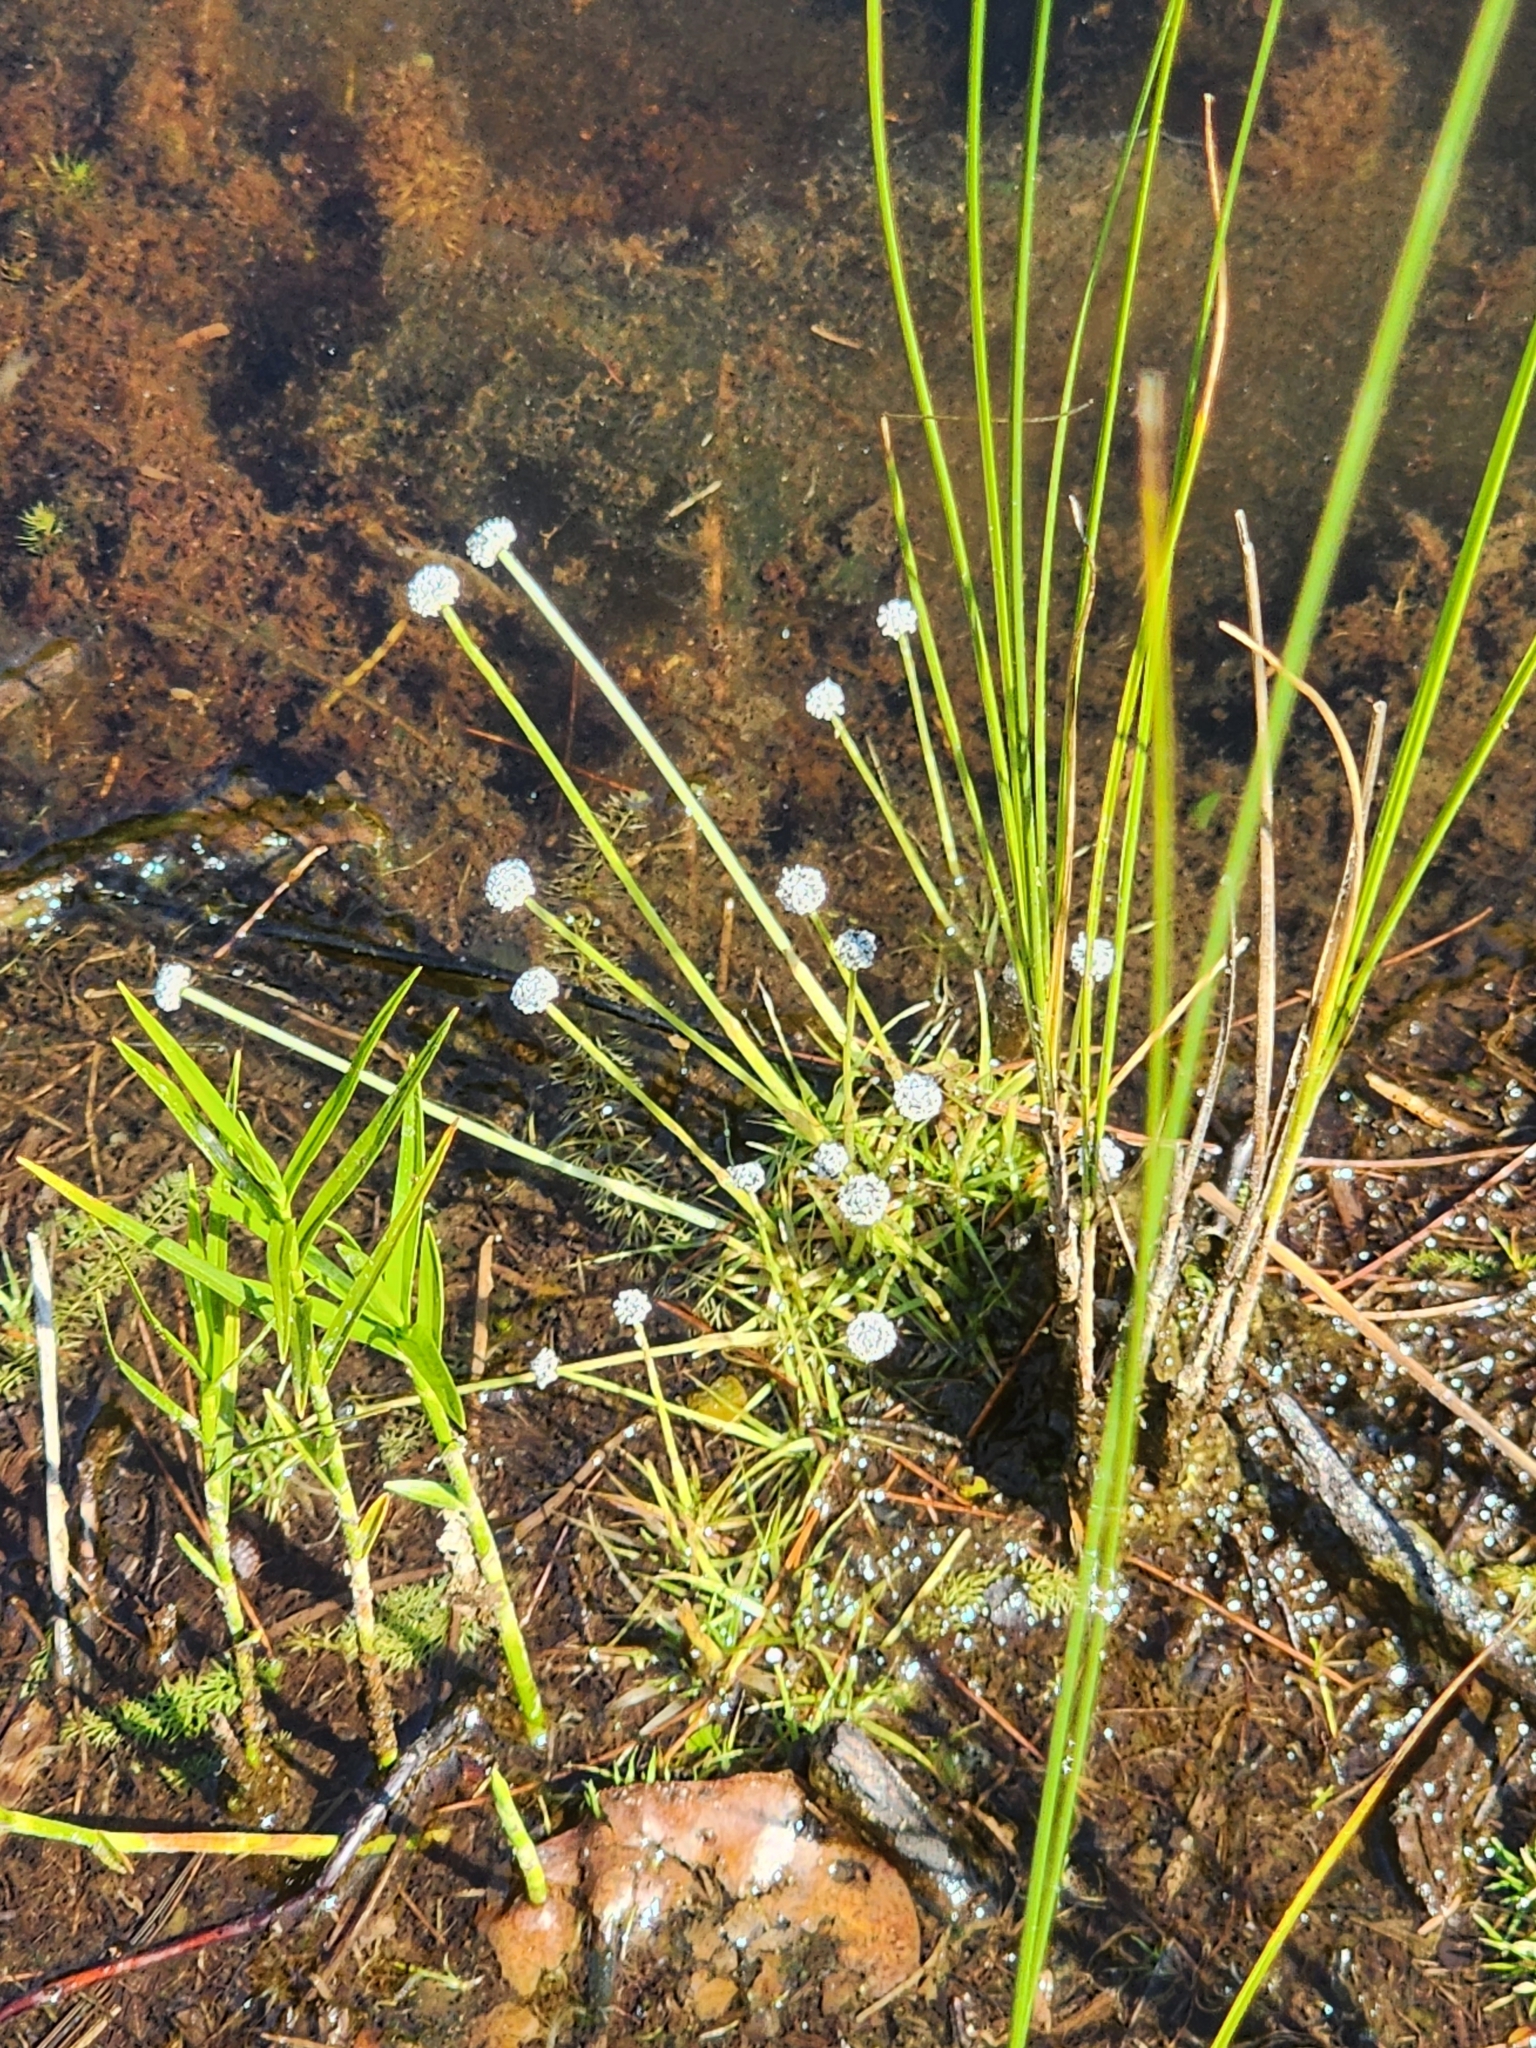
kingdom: Plantae
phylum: Tracheophyta
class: Liliopsida
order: Poales
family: Eriocaulaceae
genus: Eriocaulon
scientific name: Eriocaulon aquaticum
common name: Pipewort
